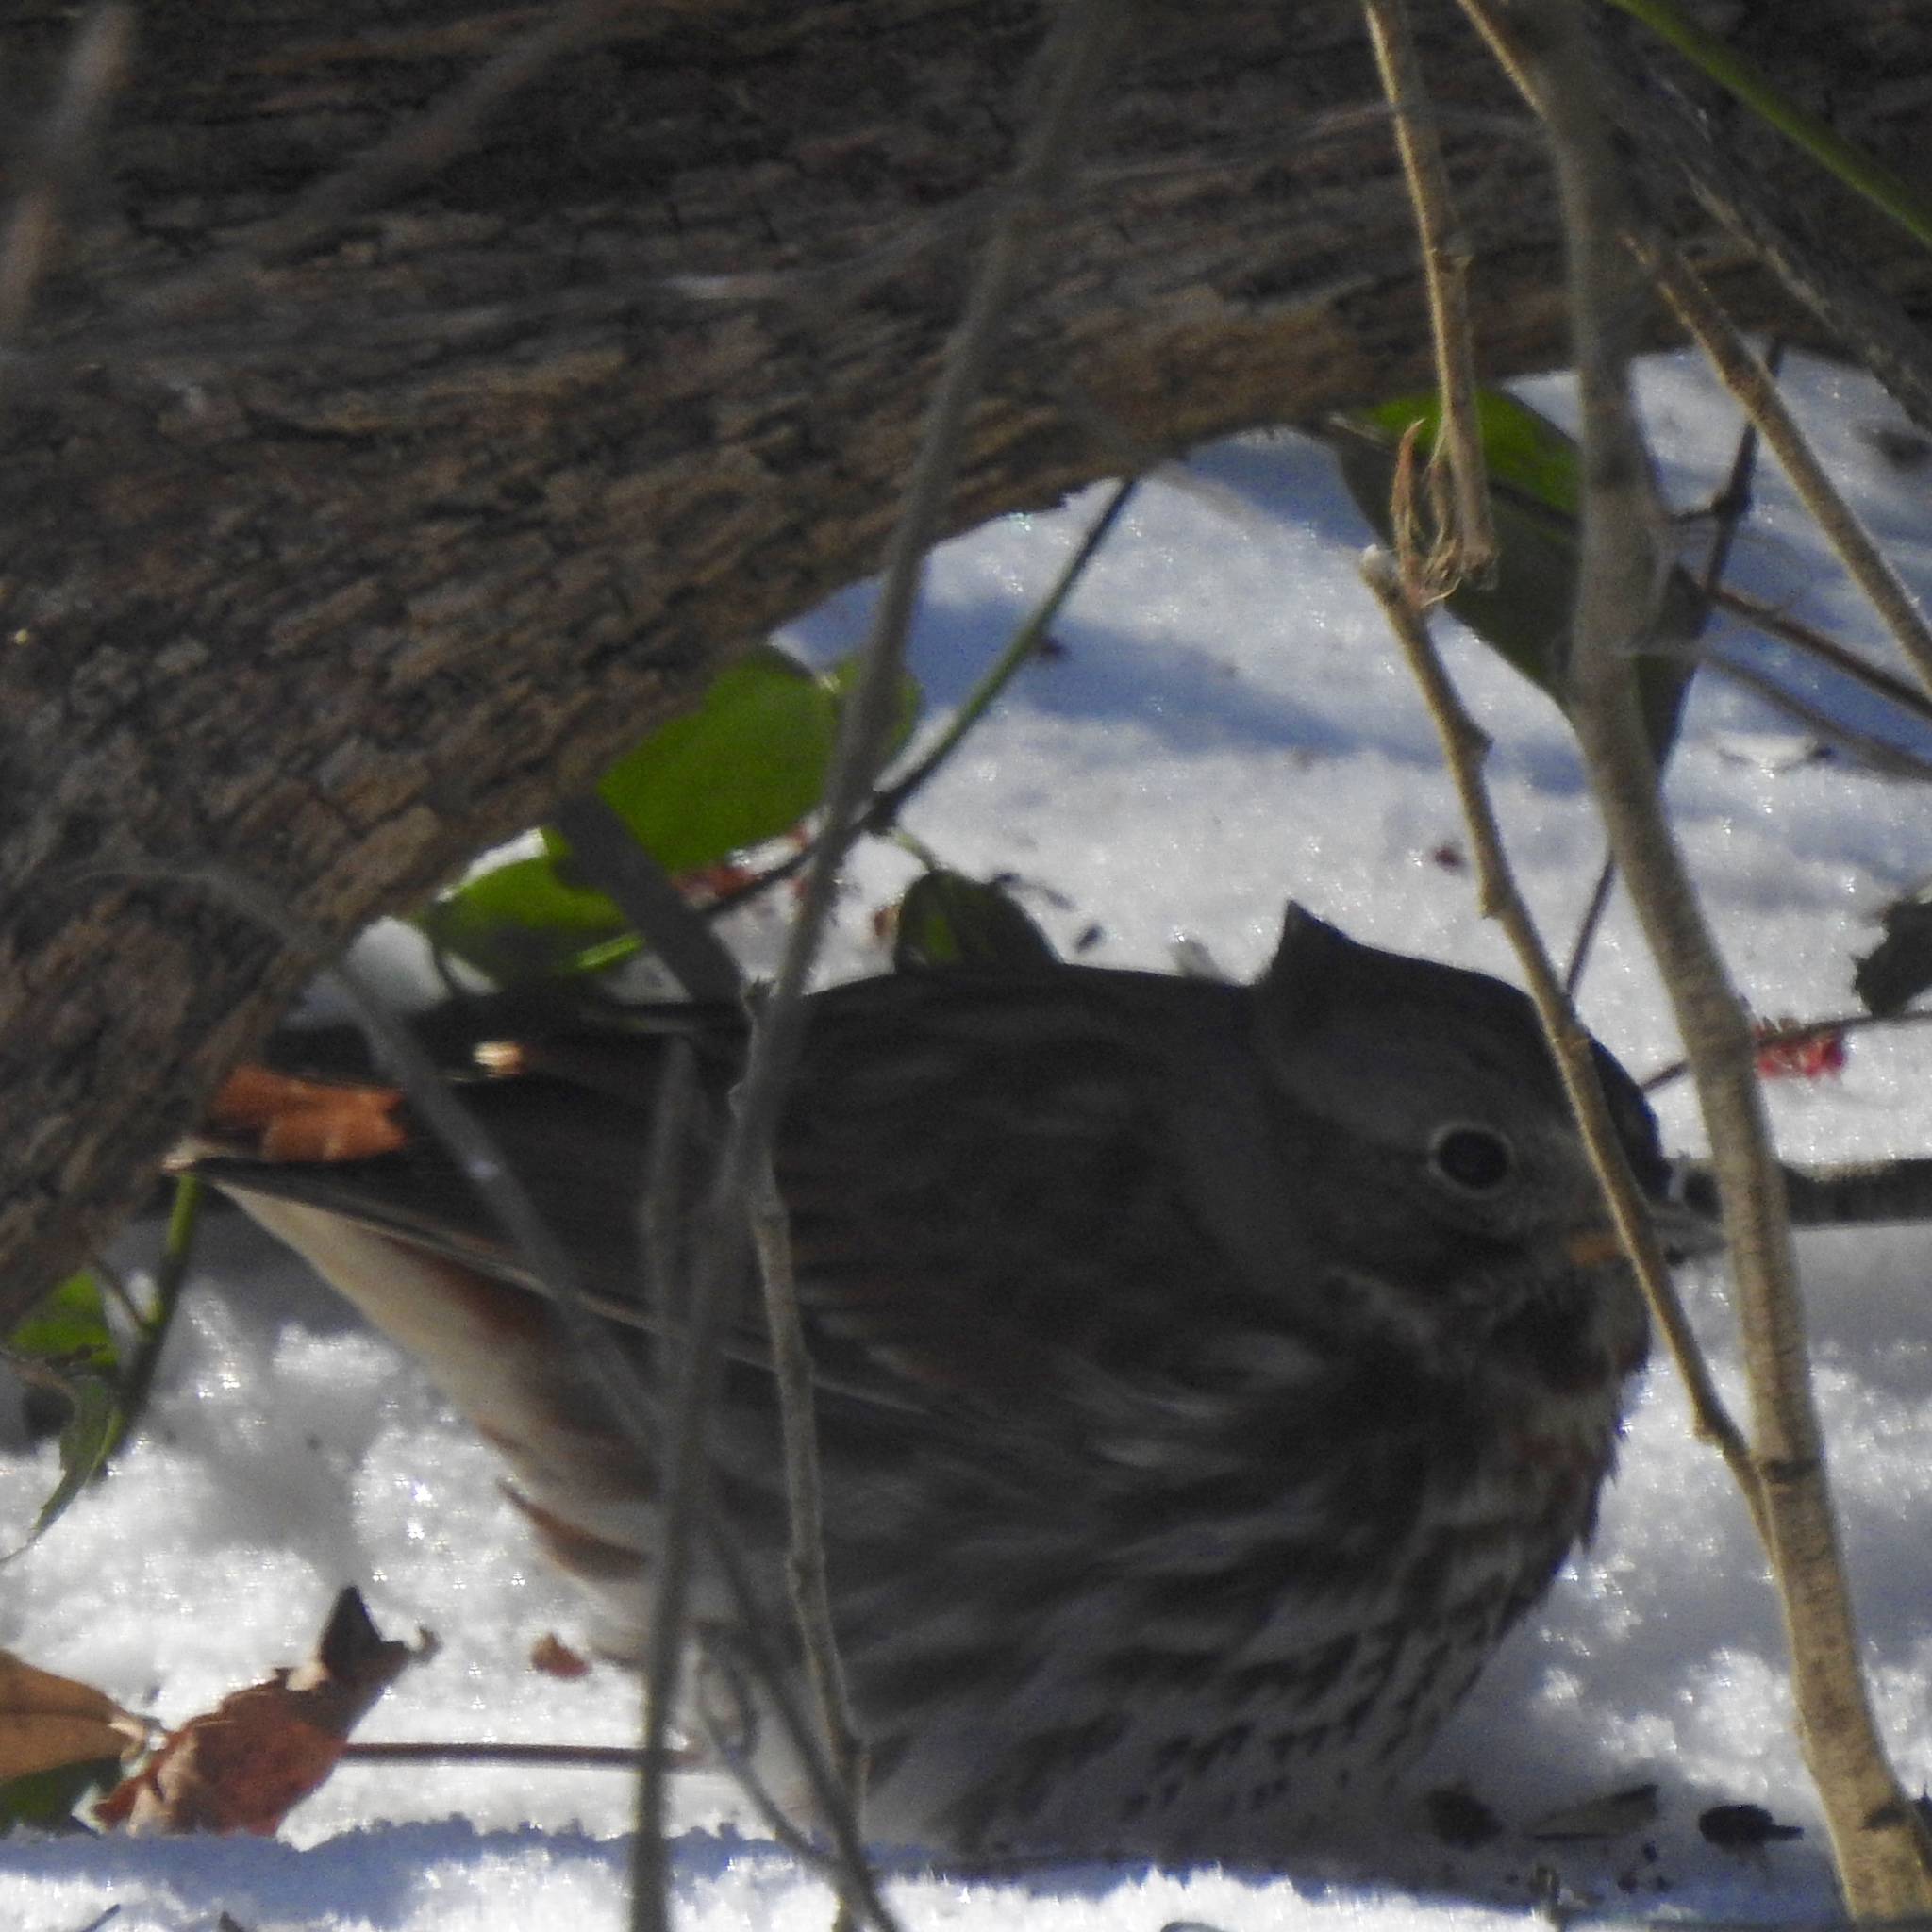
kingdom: Animalia
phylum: Chordata
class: Aves
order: Passeriformes
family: Passerellidae
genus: Passerella
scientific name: Passerella iliaca
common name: Fox sparrow
